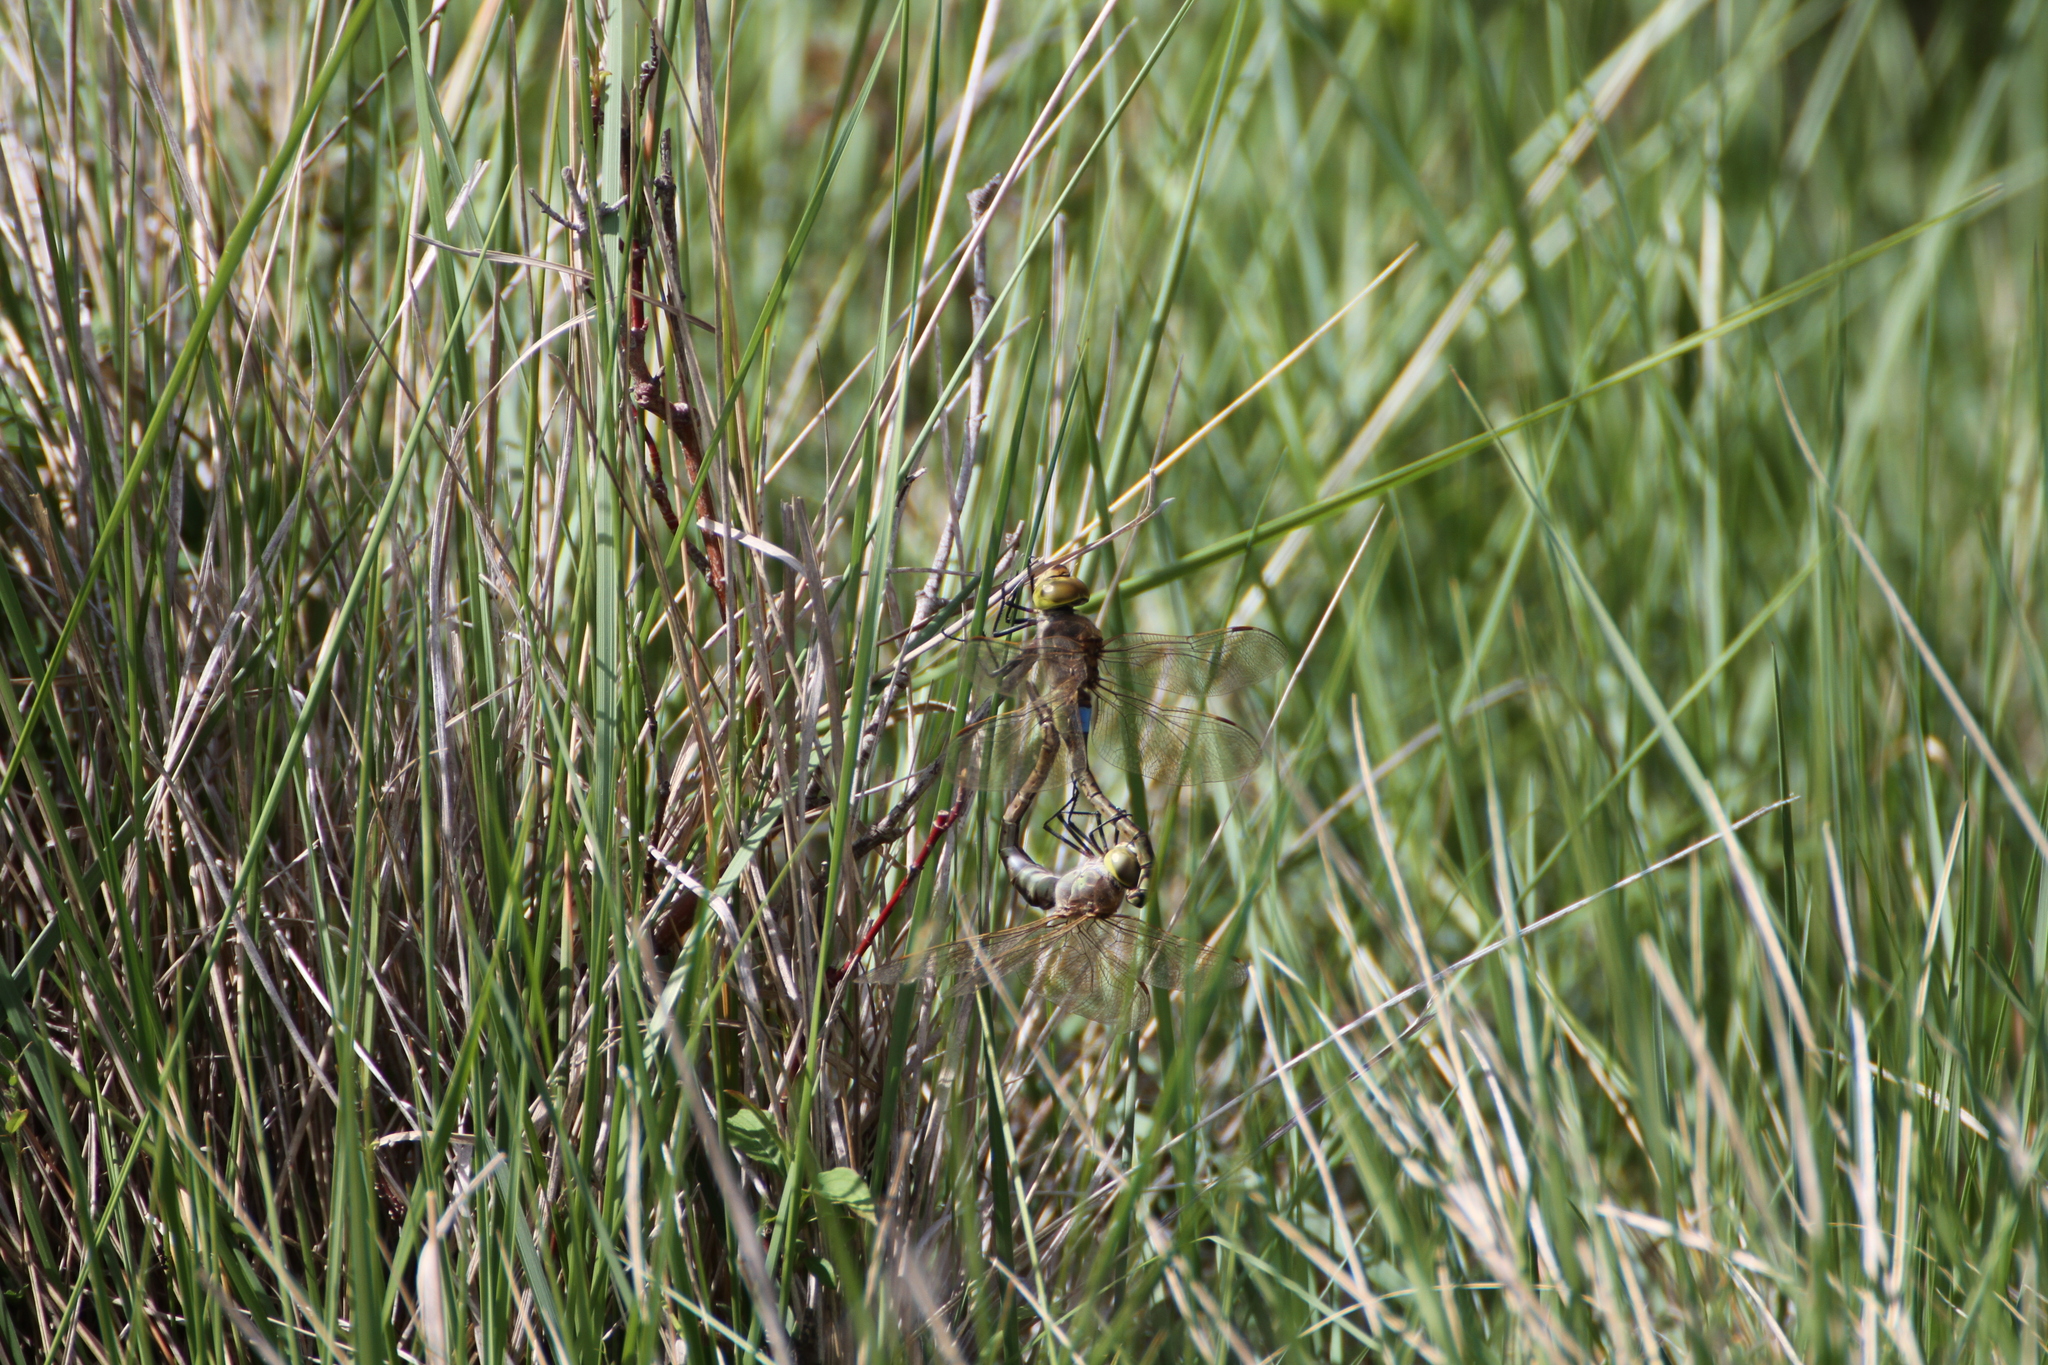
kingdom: Animalia
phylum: Arthropoda
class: Insecta
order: Odonata
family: Aeshnidae
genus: Anax
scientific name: Anax ephippiger
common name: Vagrant emperor
